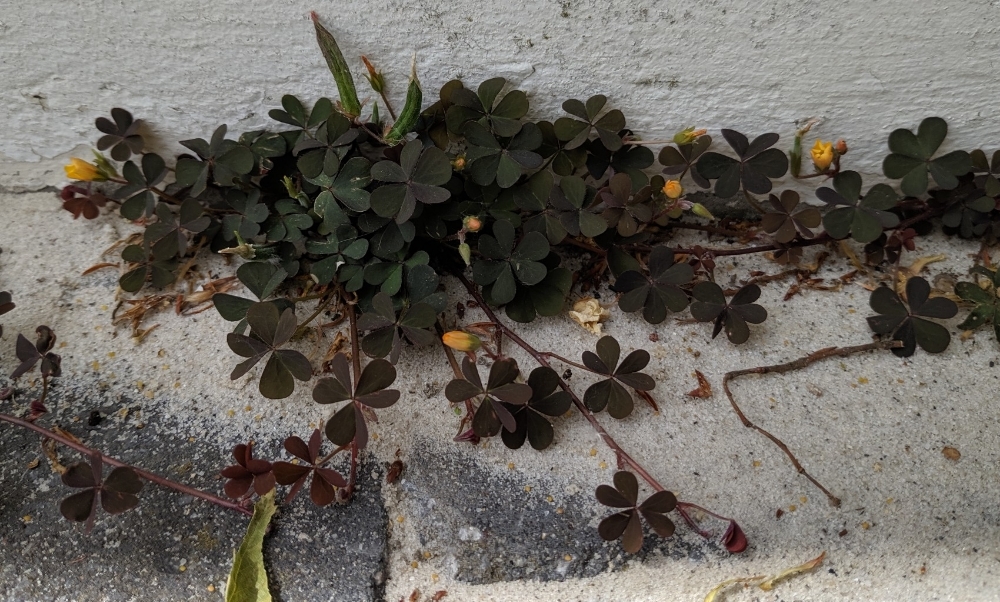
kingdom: Plantae
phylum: Tracheophyta
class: Magnoliopsida
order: Oxalidales
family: Oxalidaceae
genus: Oxalis
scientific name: Oxalis corniculata
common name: Procumbent yellow-sorrel
